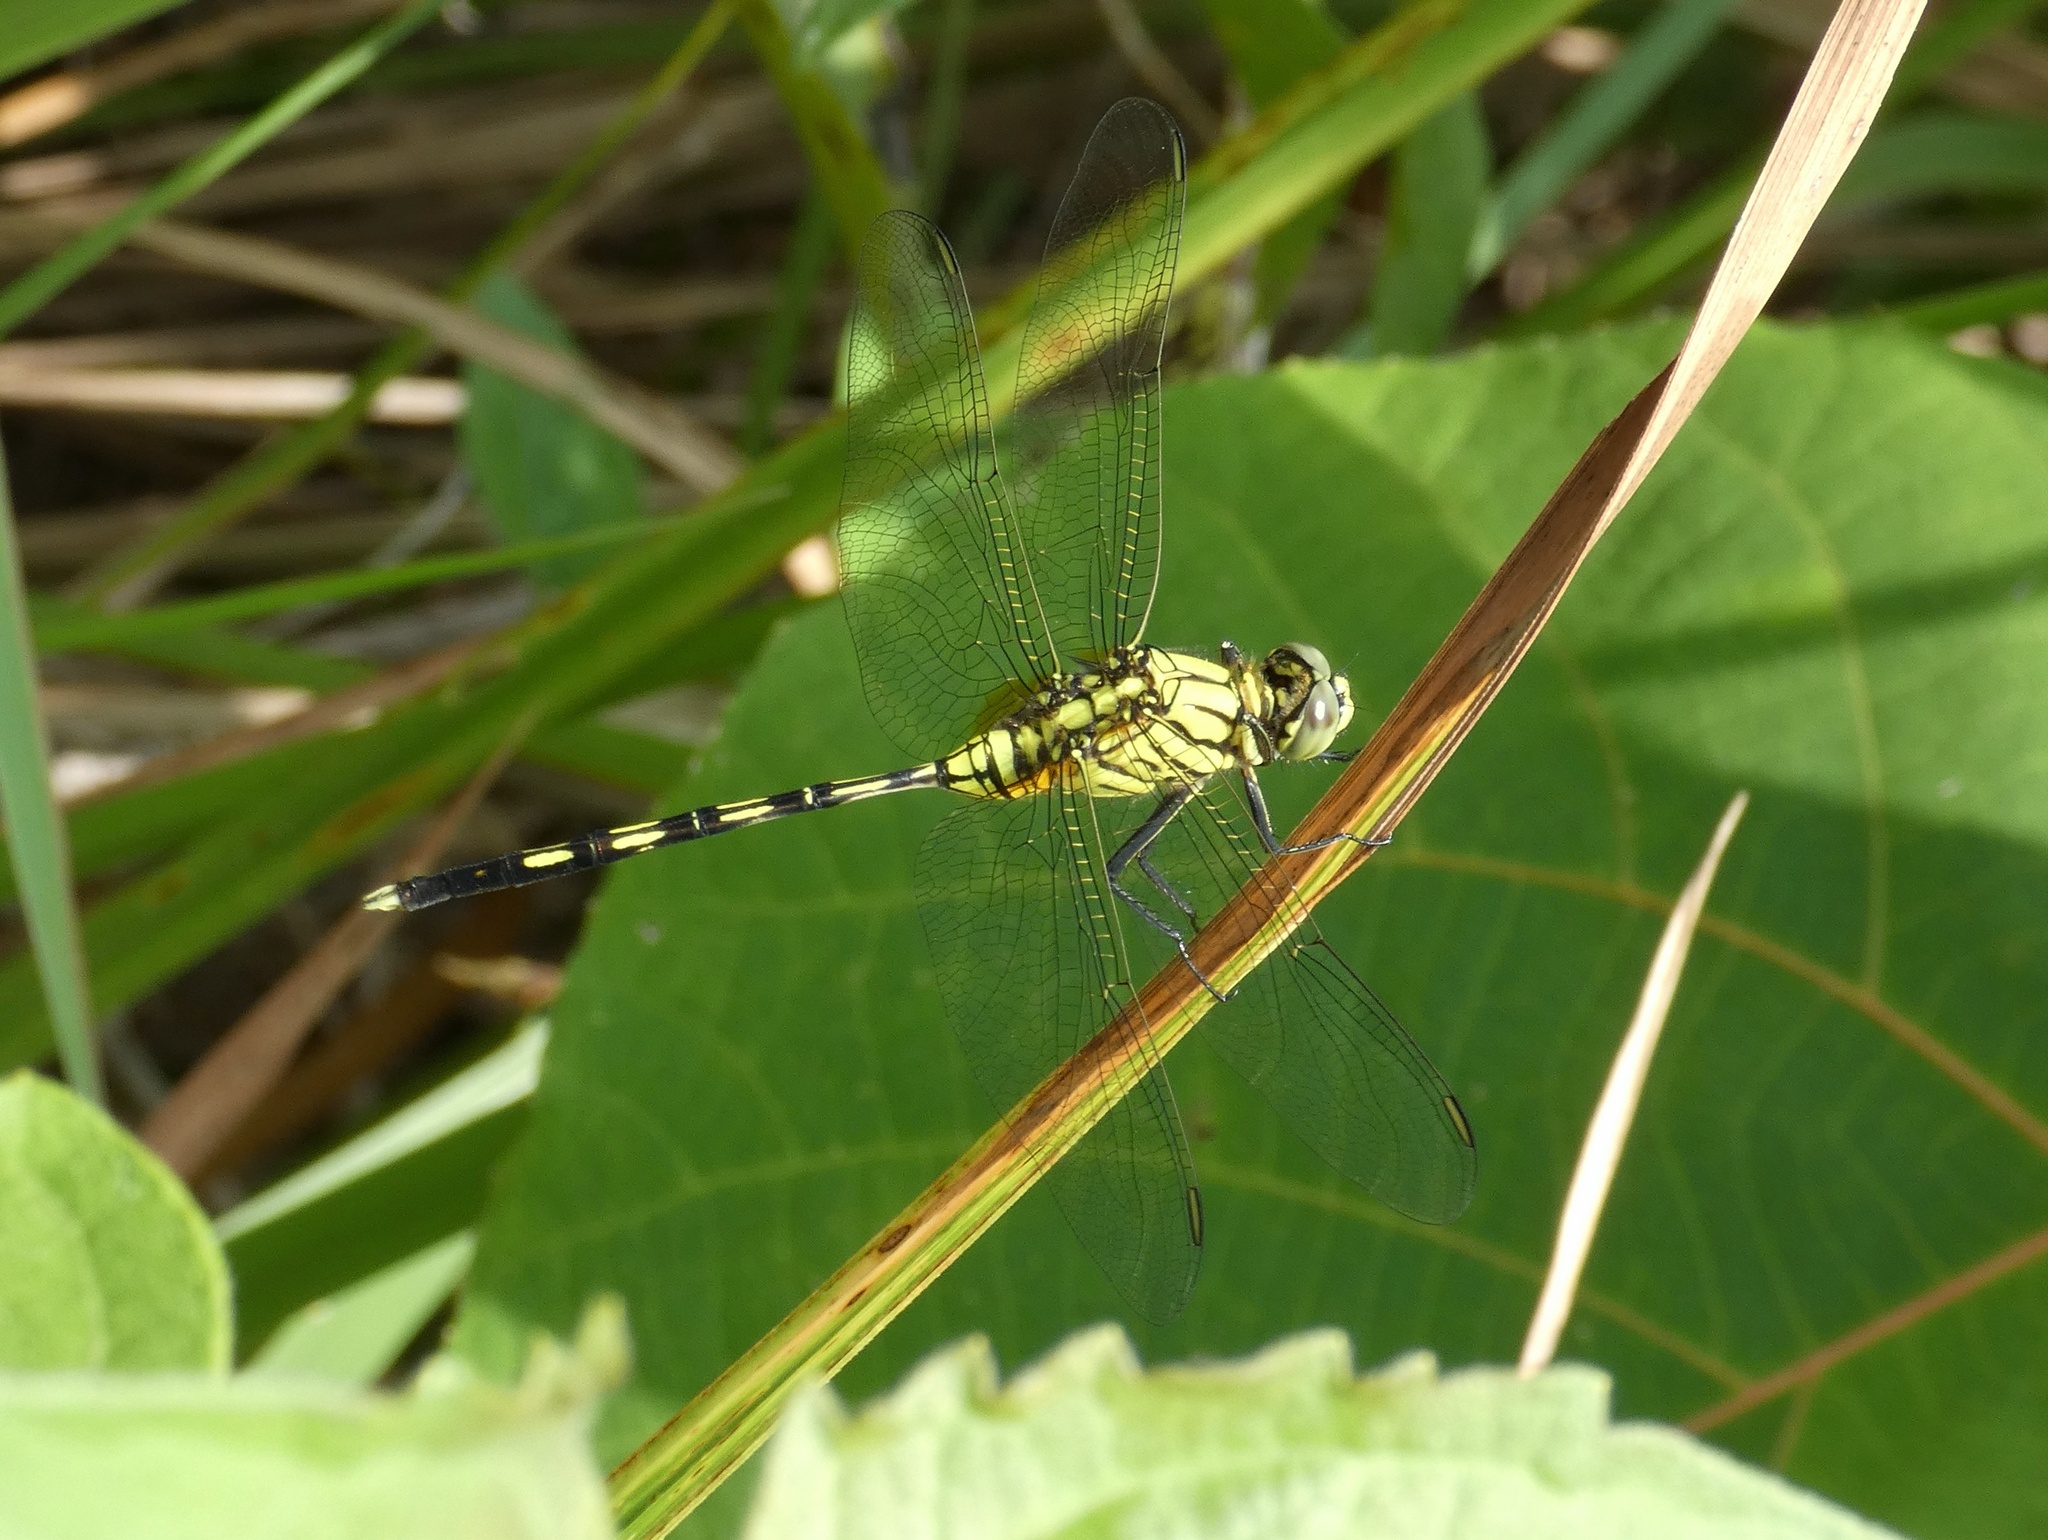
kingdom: Animalia
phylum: Arthropoda
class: Insecta
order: Odonata
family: Libellulidae
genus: Orthetrum
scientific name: Orthetrum serapia
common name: Green skimmer
